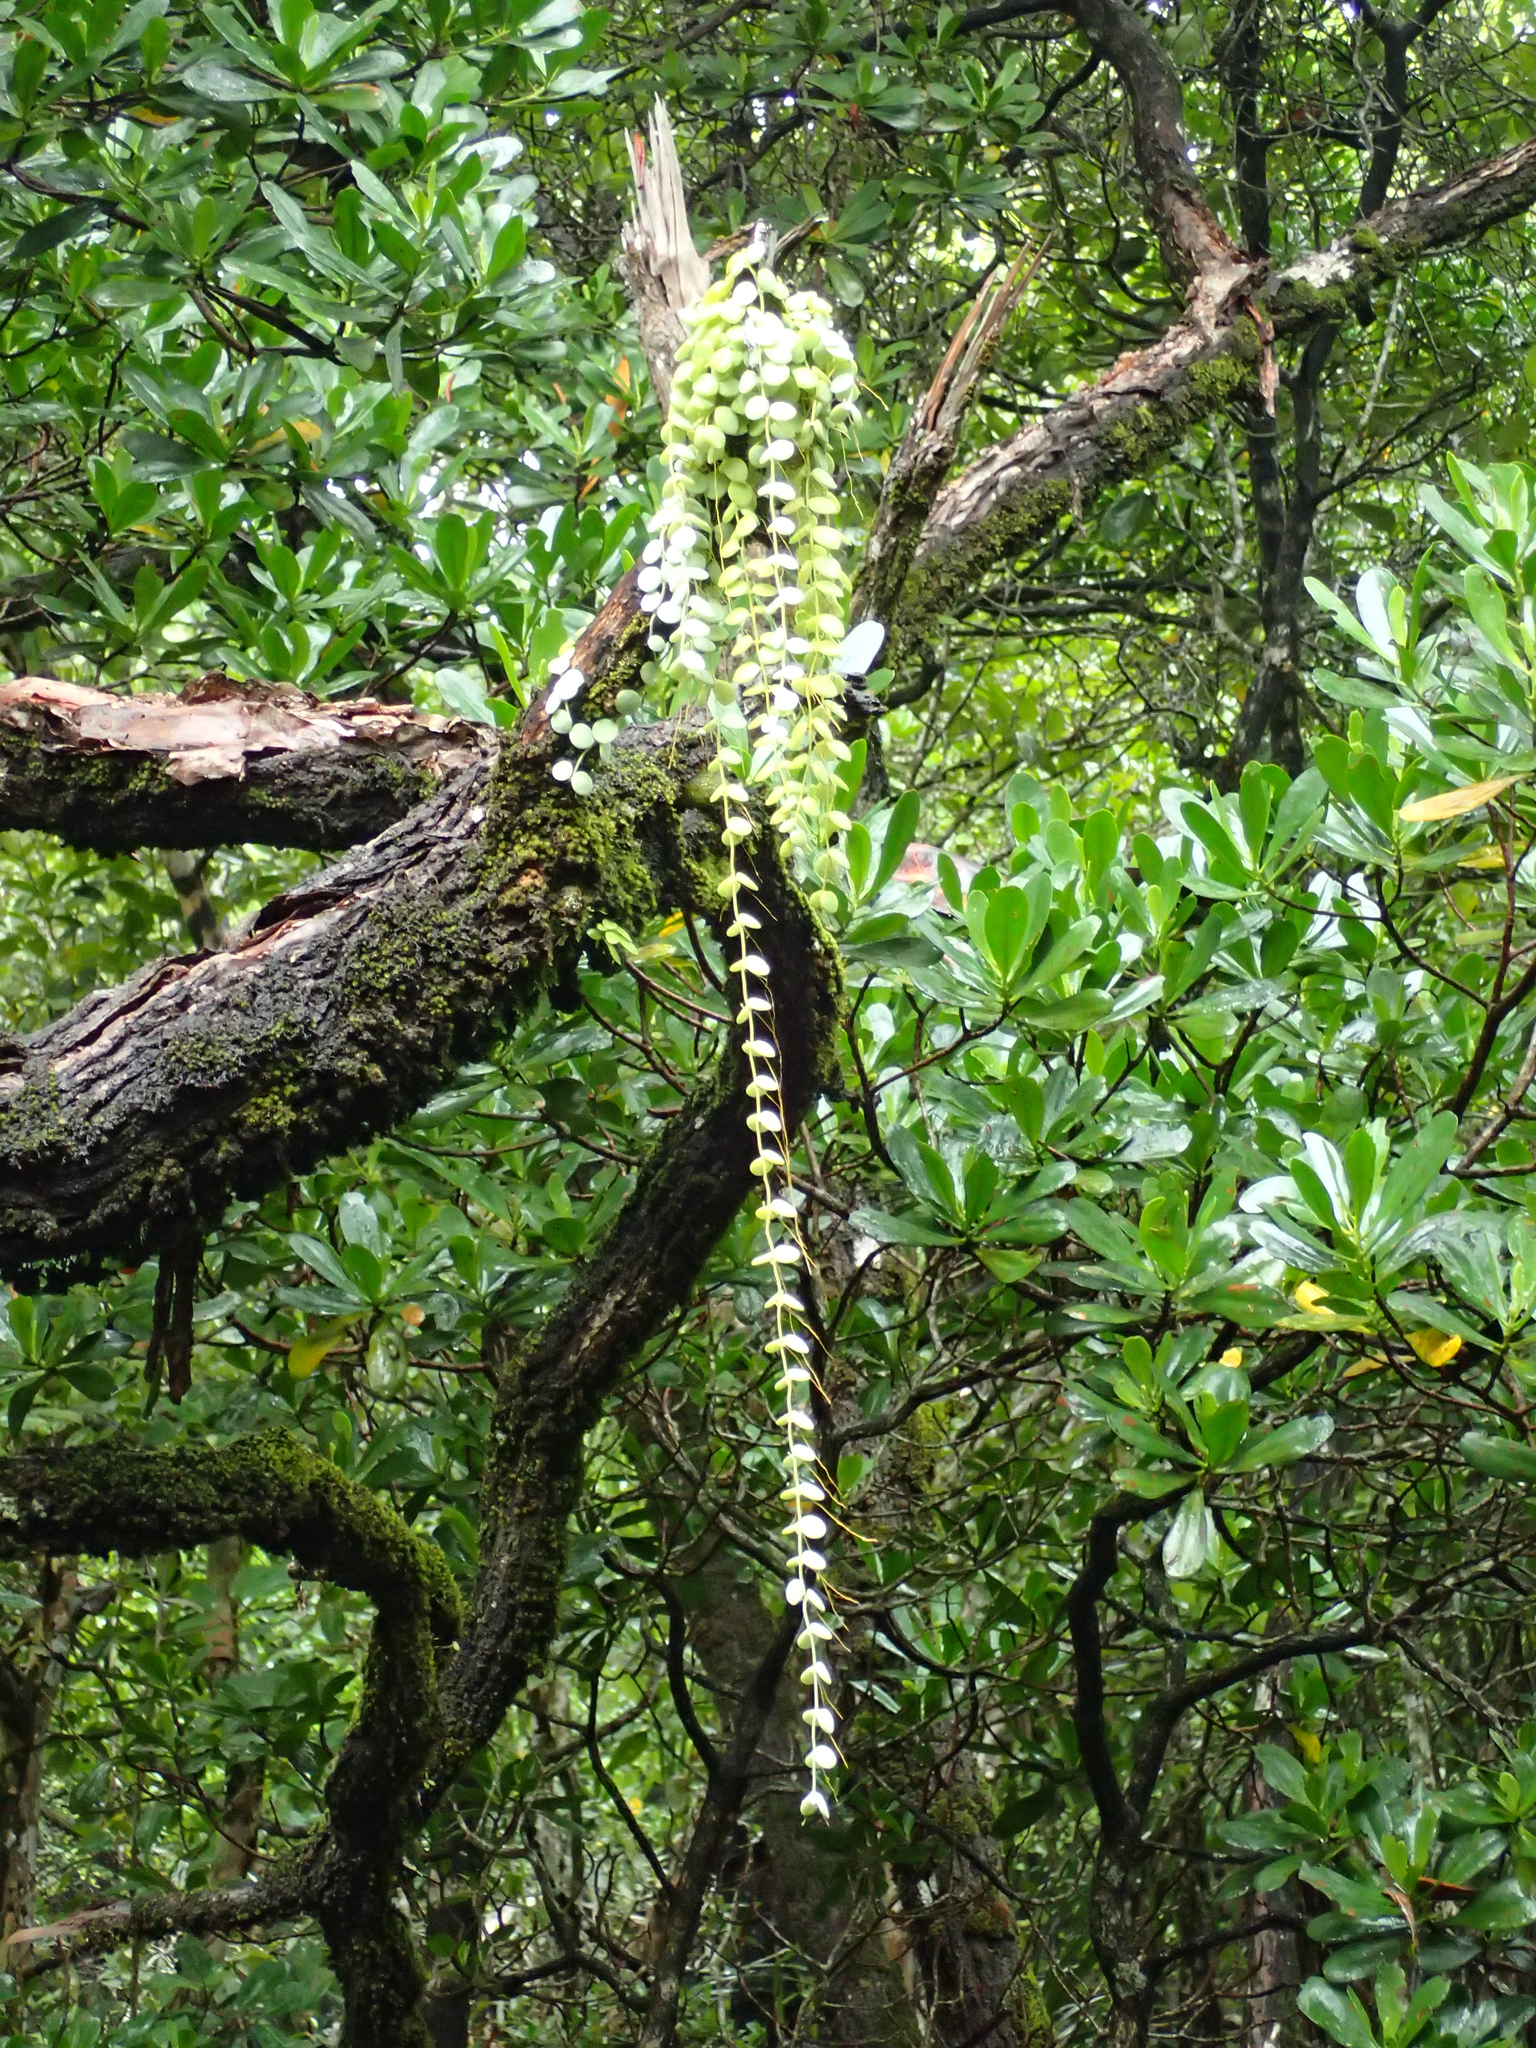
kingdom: Plantae
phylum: Tracheophyta
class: Magnoliopsida
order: Gentianales
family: Apocynaceae
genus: Dischidia
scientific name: Dischidia nummularia
